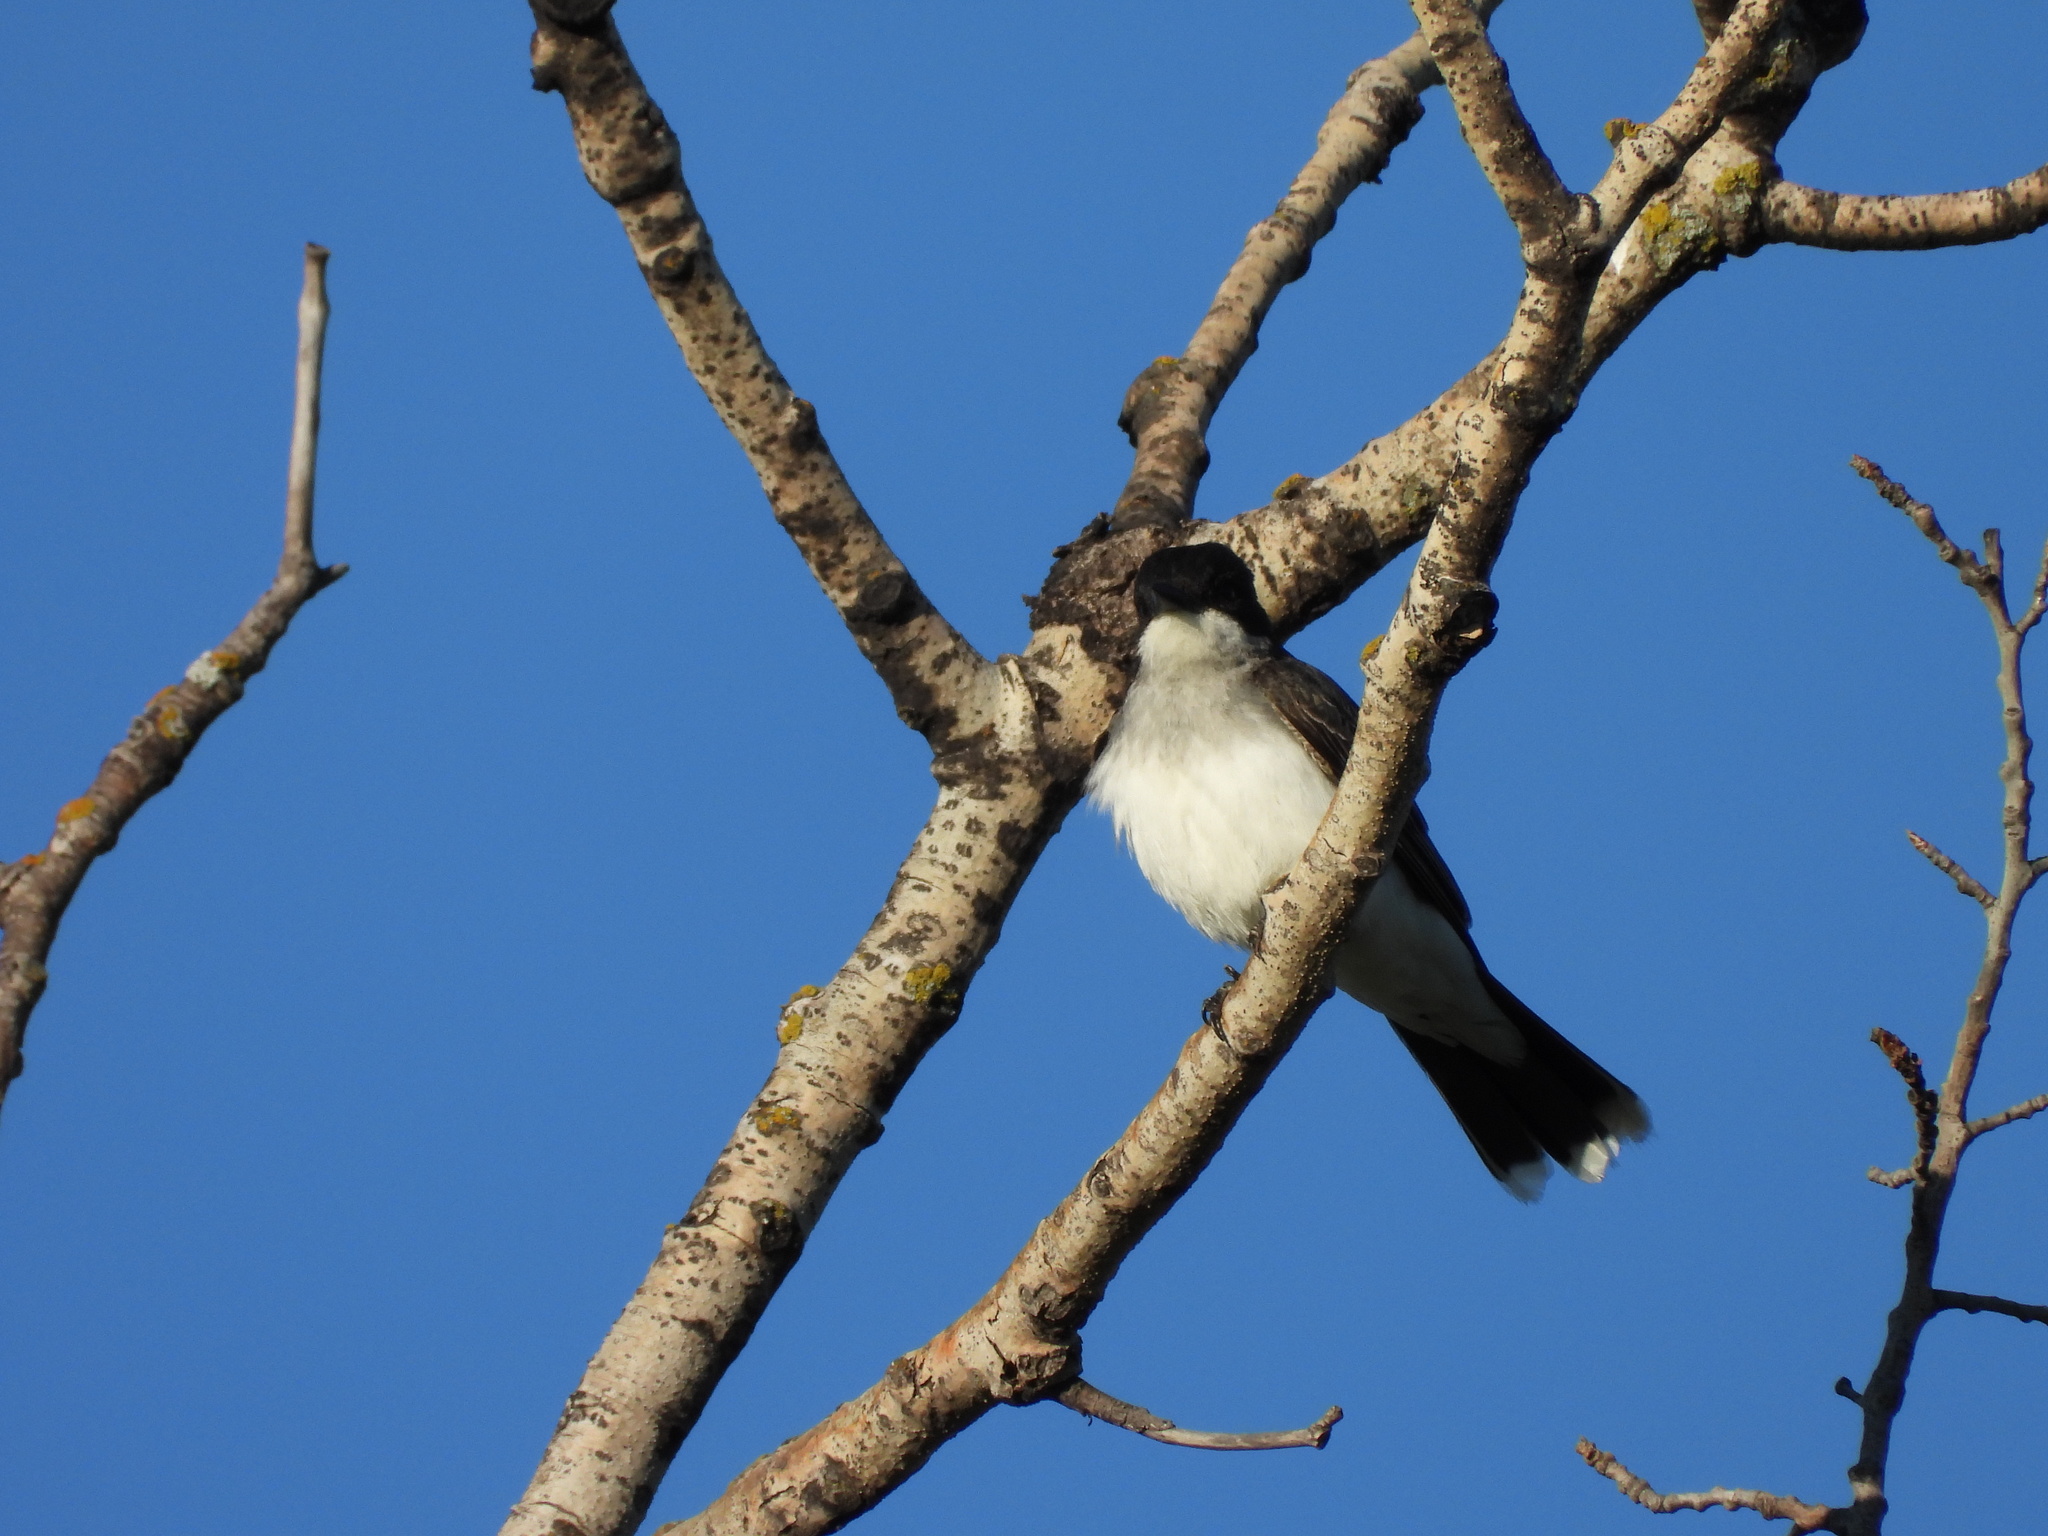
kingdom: Animalia
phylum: Chordata
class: Aves
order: Passeriformes
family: Tyrannidae
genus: Tyrannus
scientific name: Tyrannus tyrannus
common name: Eastern kingbird
